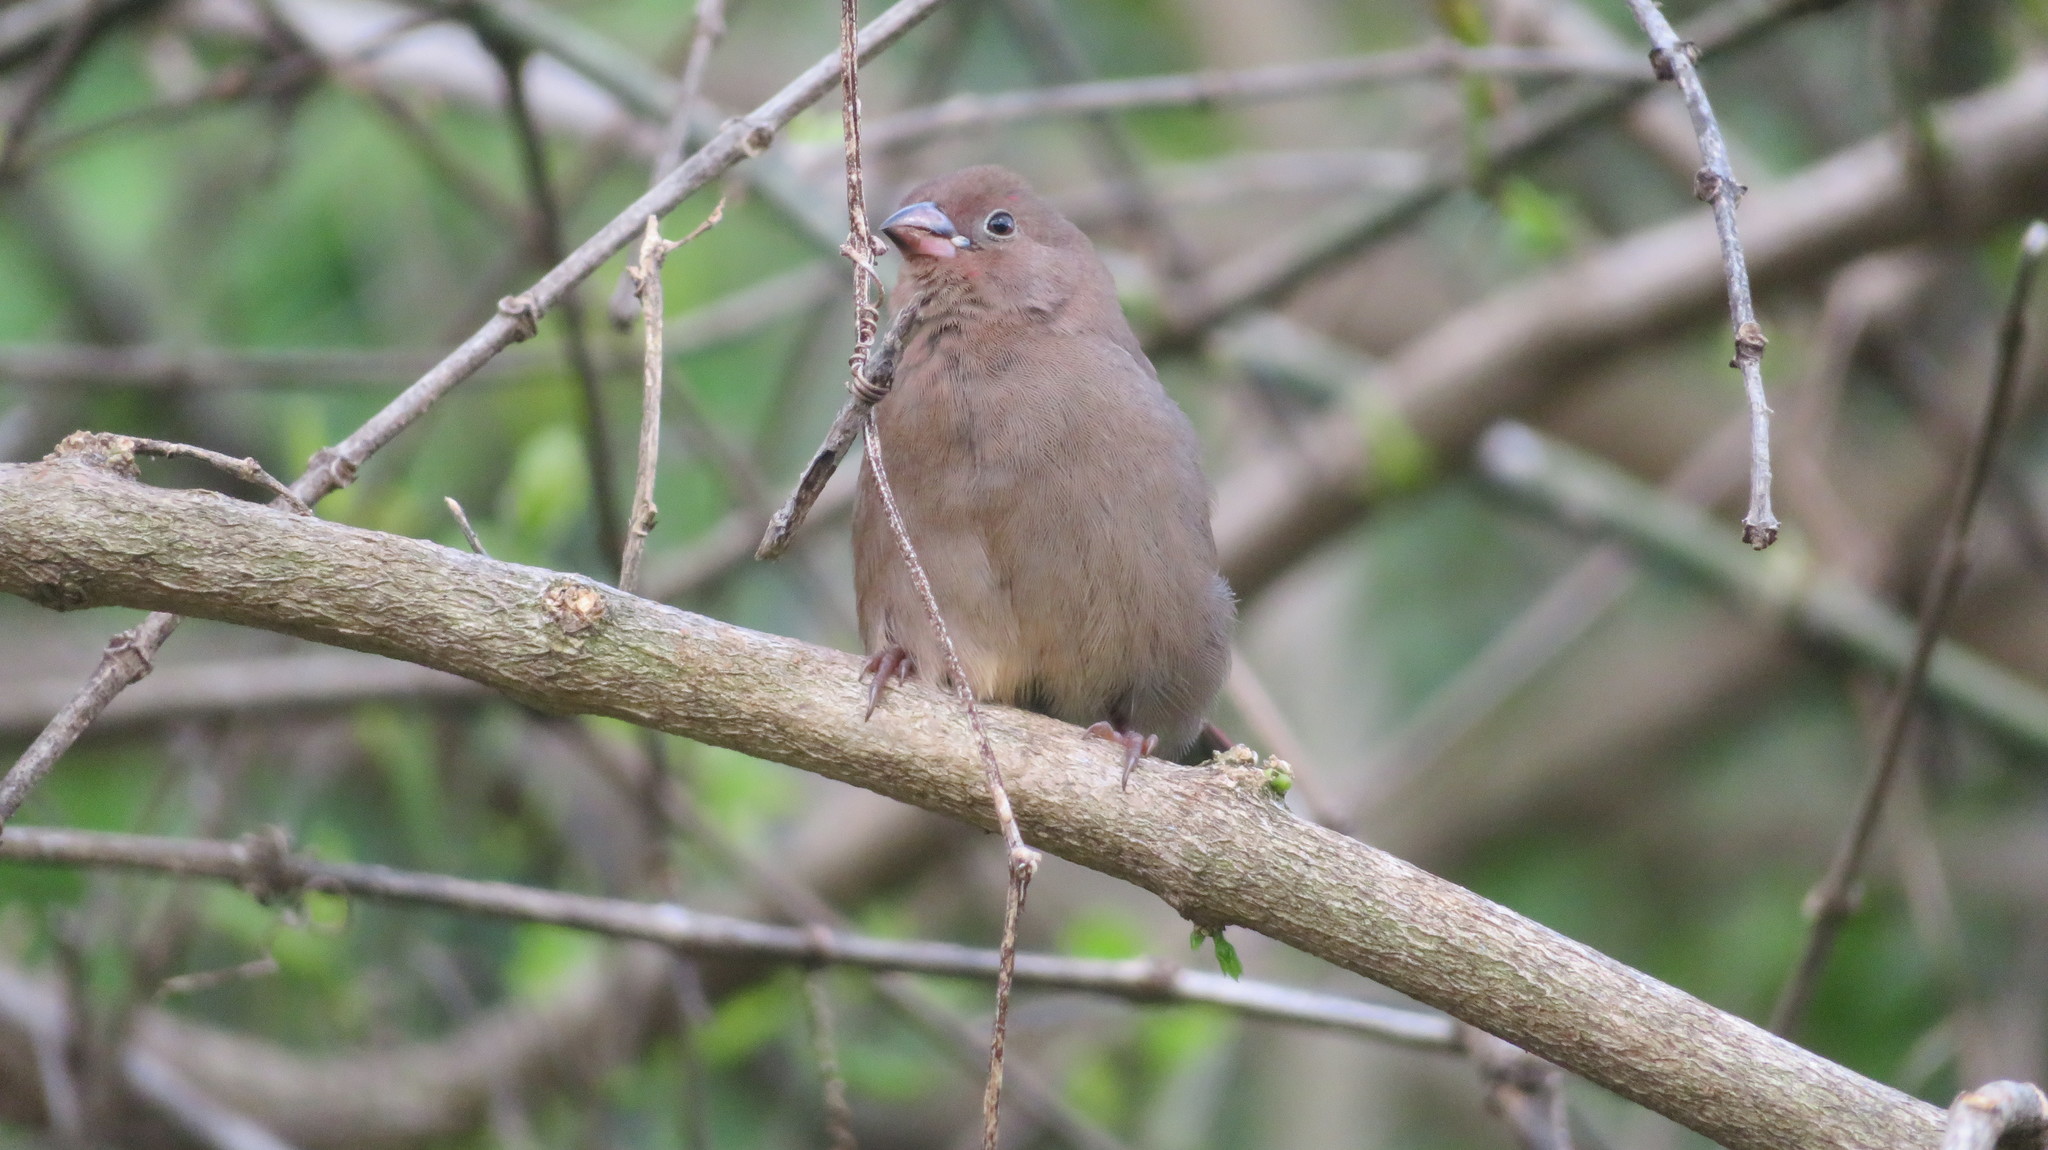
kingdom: Animalia
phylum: Chordata
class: Aves
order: Passeriformes
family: Estrildidae
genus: Lagonosticta
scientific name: Lagonosticta senegala
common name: Red-billed firefinch
